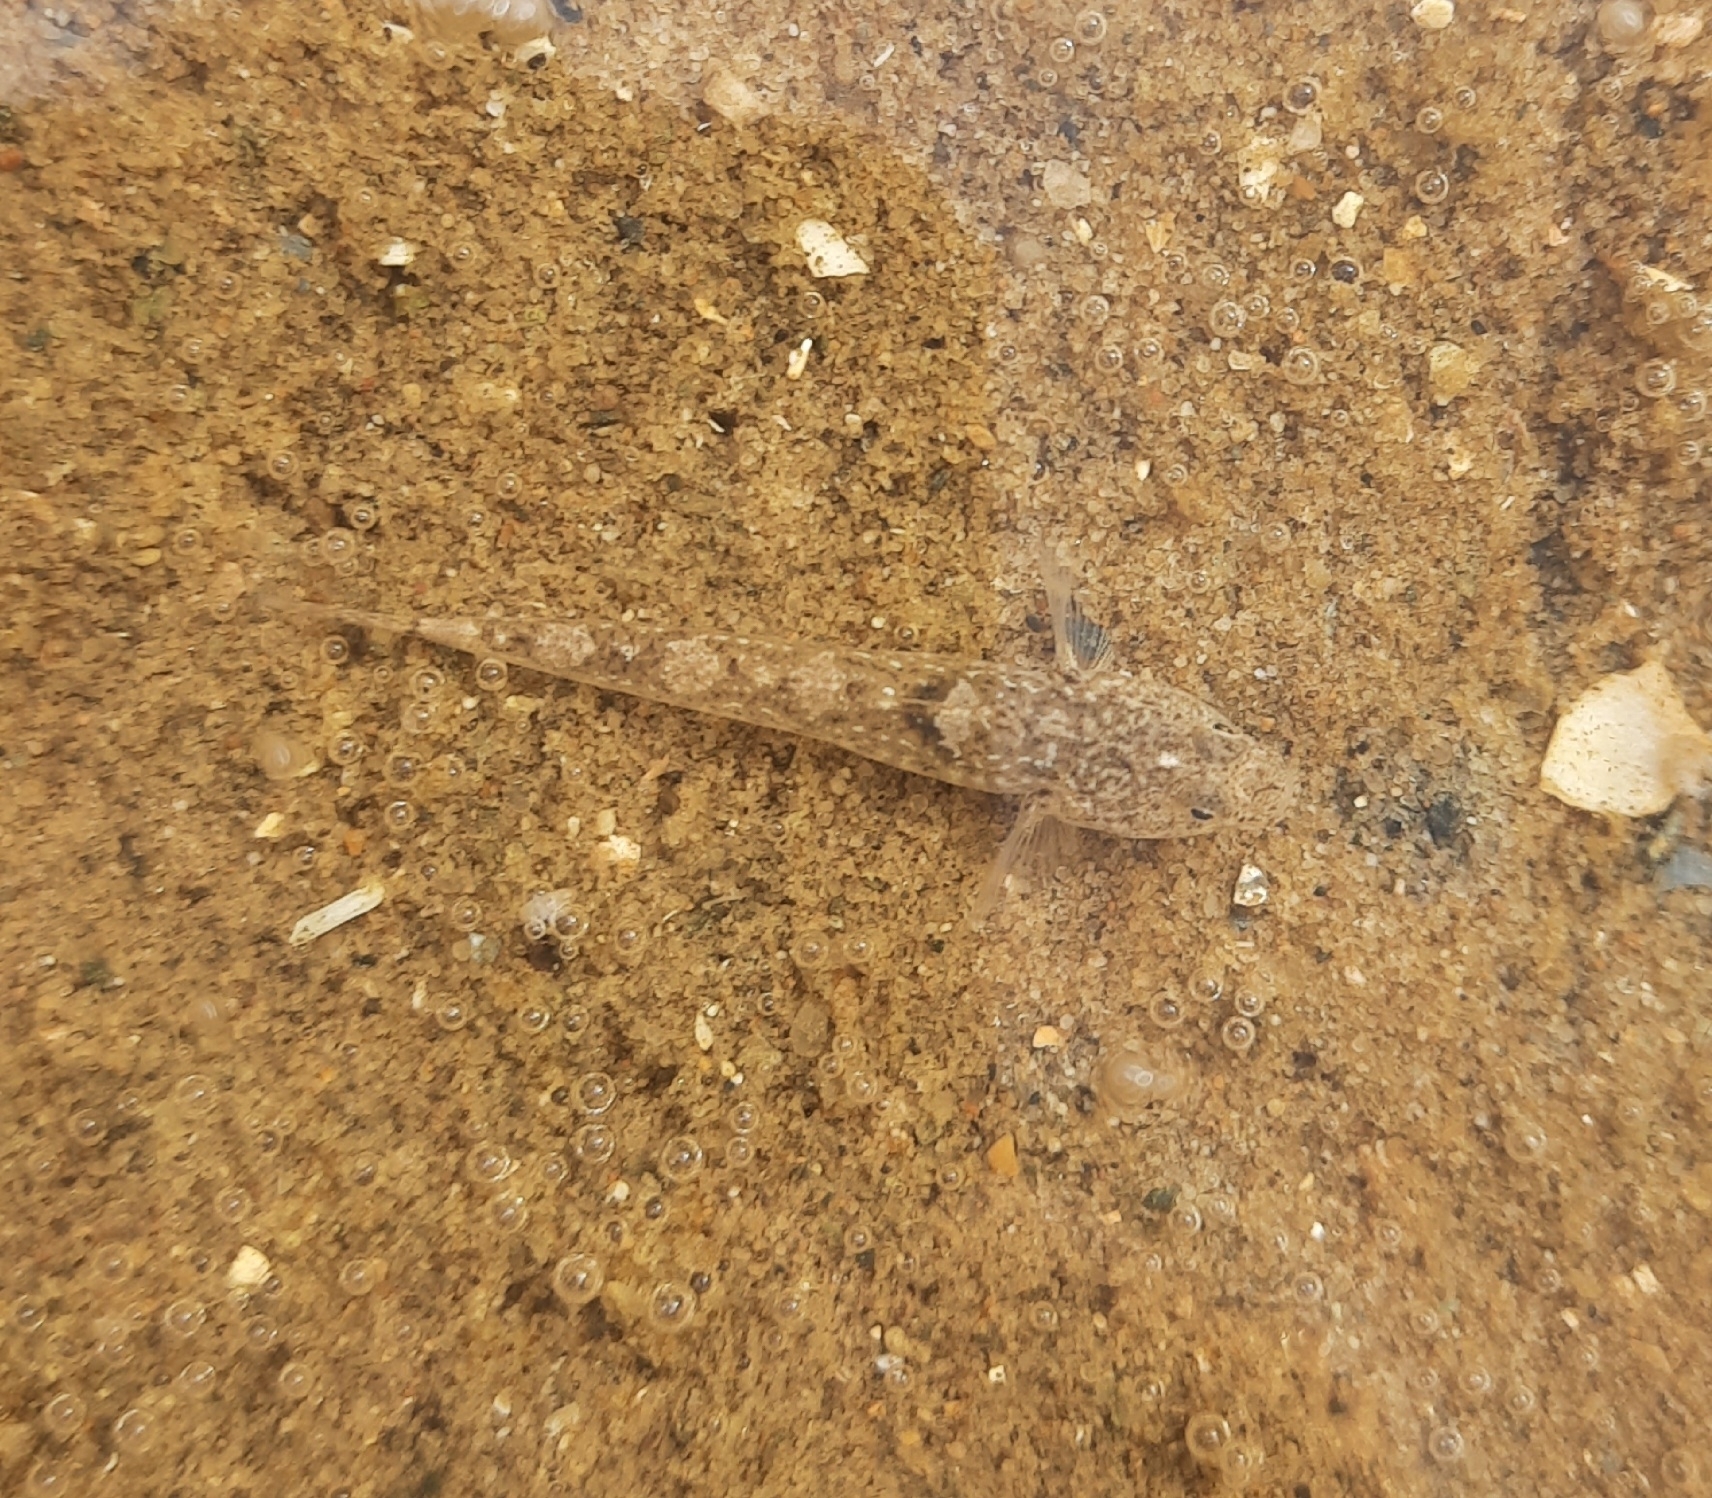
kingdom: Animalia
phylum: Chordata
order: Perciformes
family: Gobiidae
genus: Pomatoschistus
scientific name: Pomatoschistus microps
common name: Common goby
